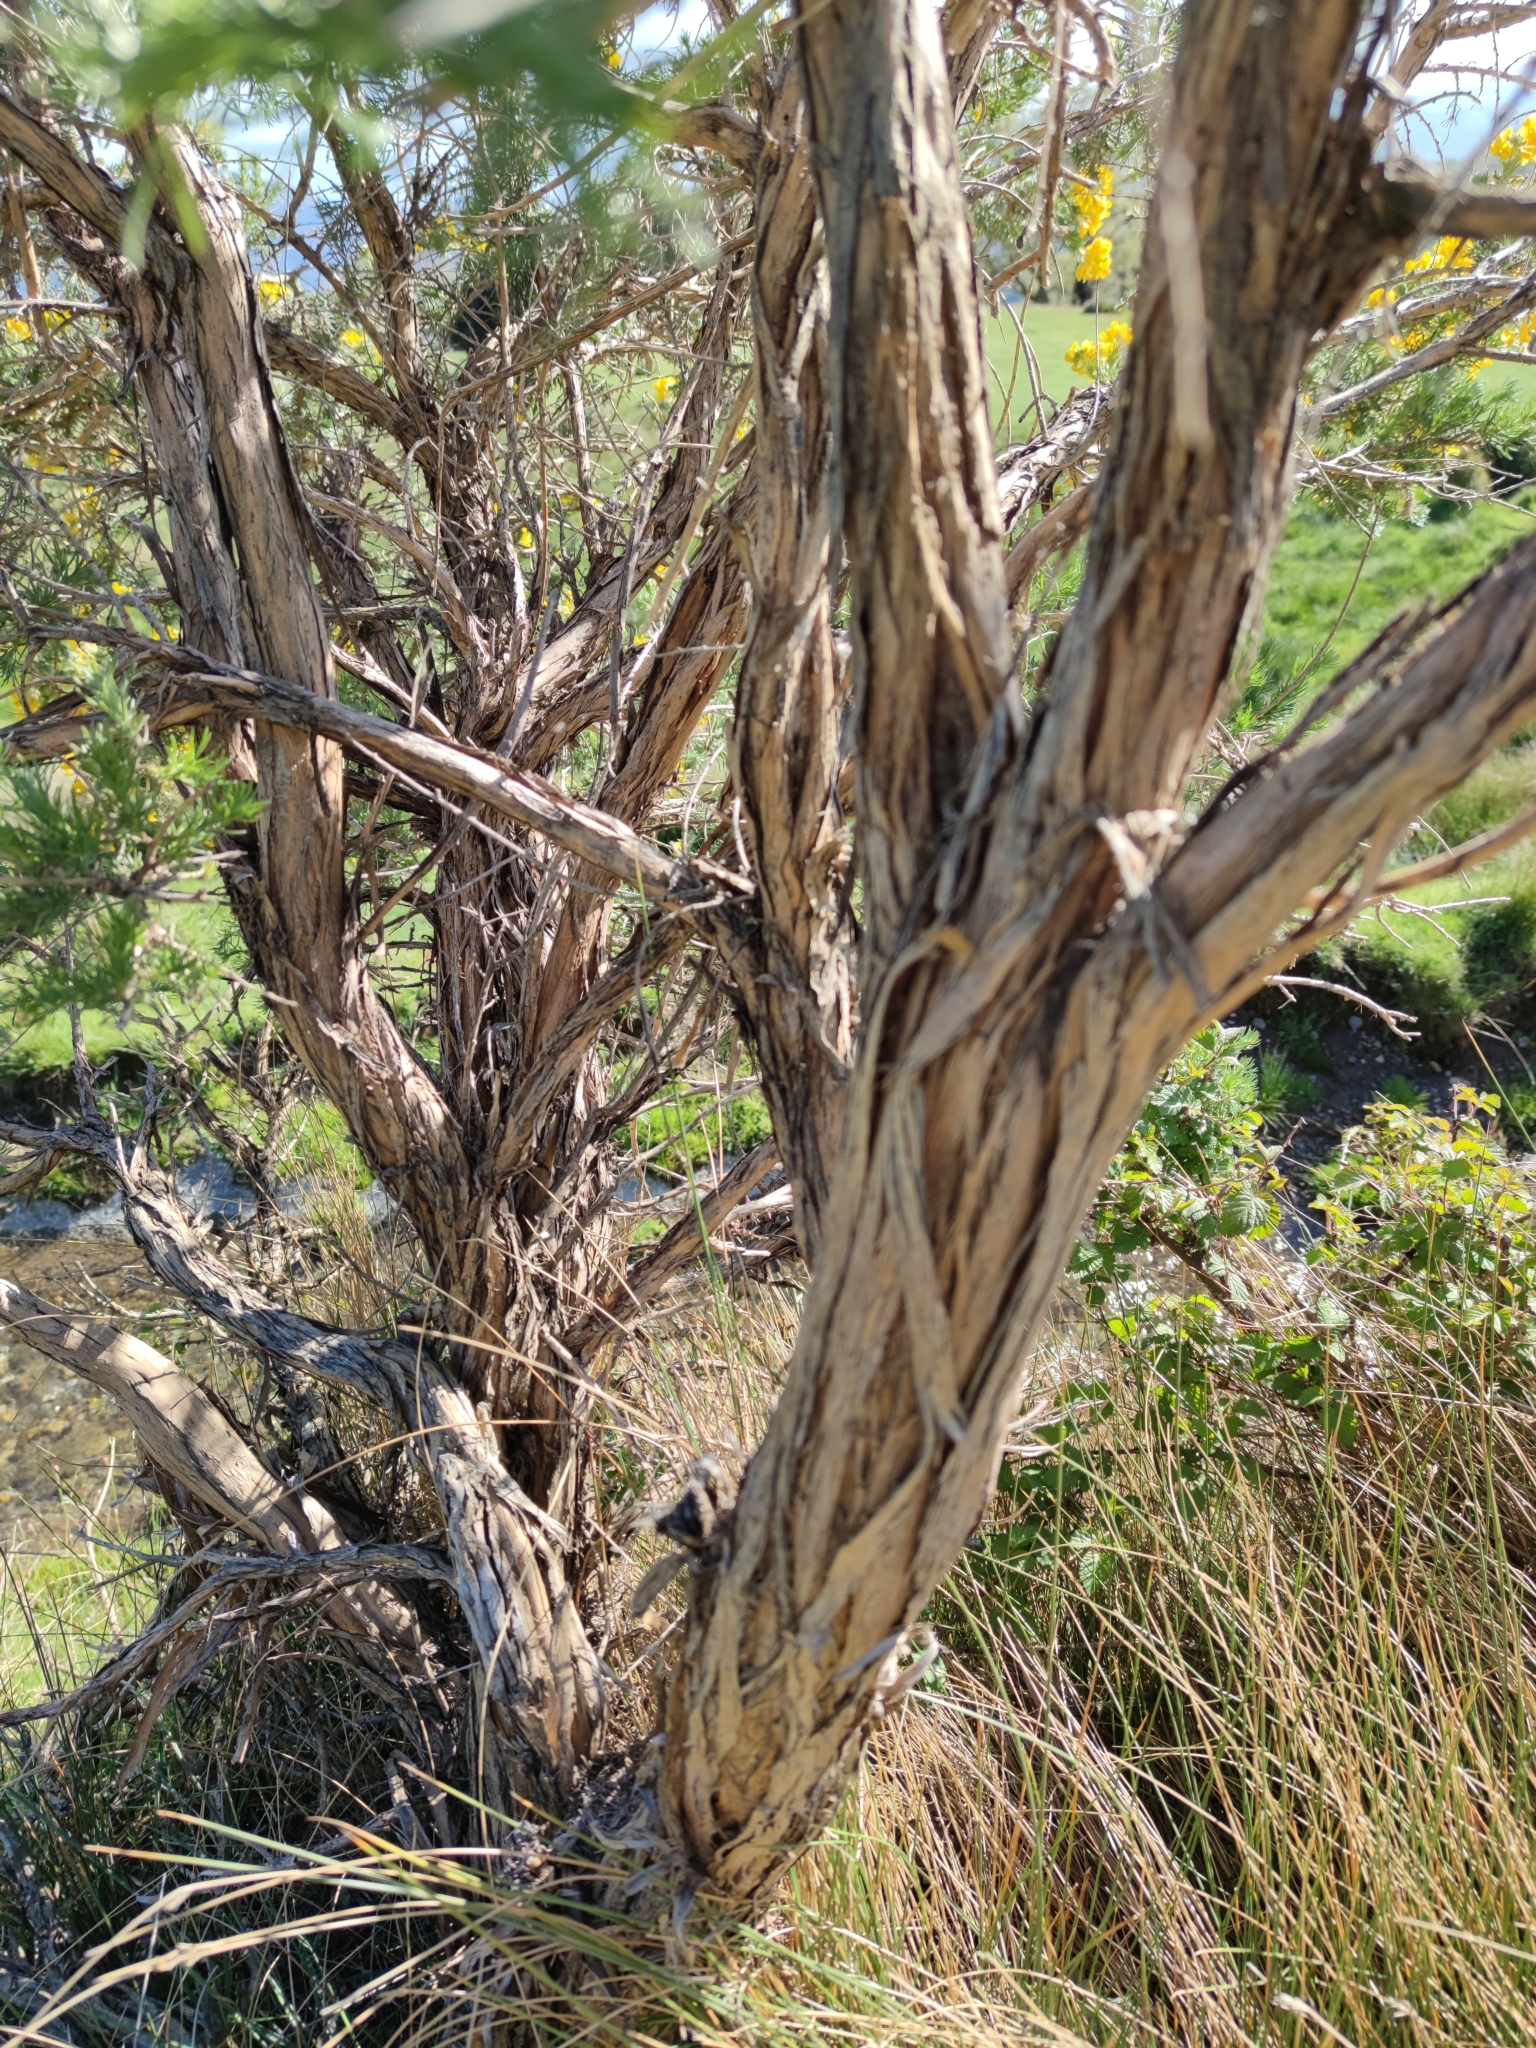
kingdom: Plantae
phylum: Tracheophyta
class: Magnoliopsida
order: Fabales
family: Fabaceae
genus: Adenocarpus
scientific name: Adenocarpus decorticans
